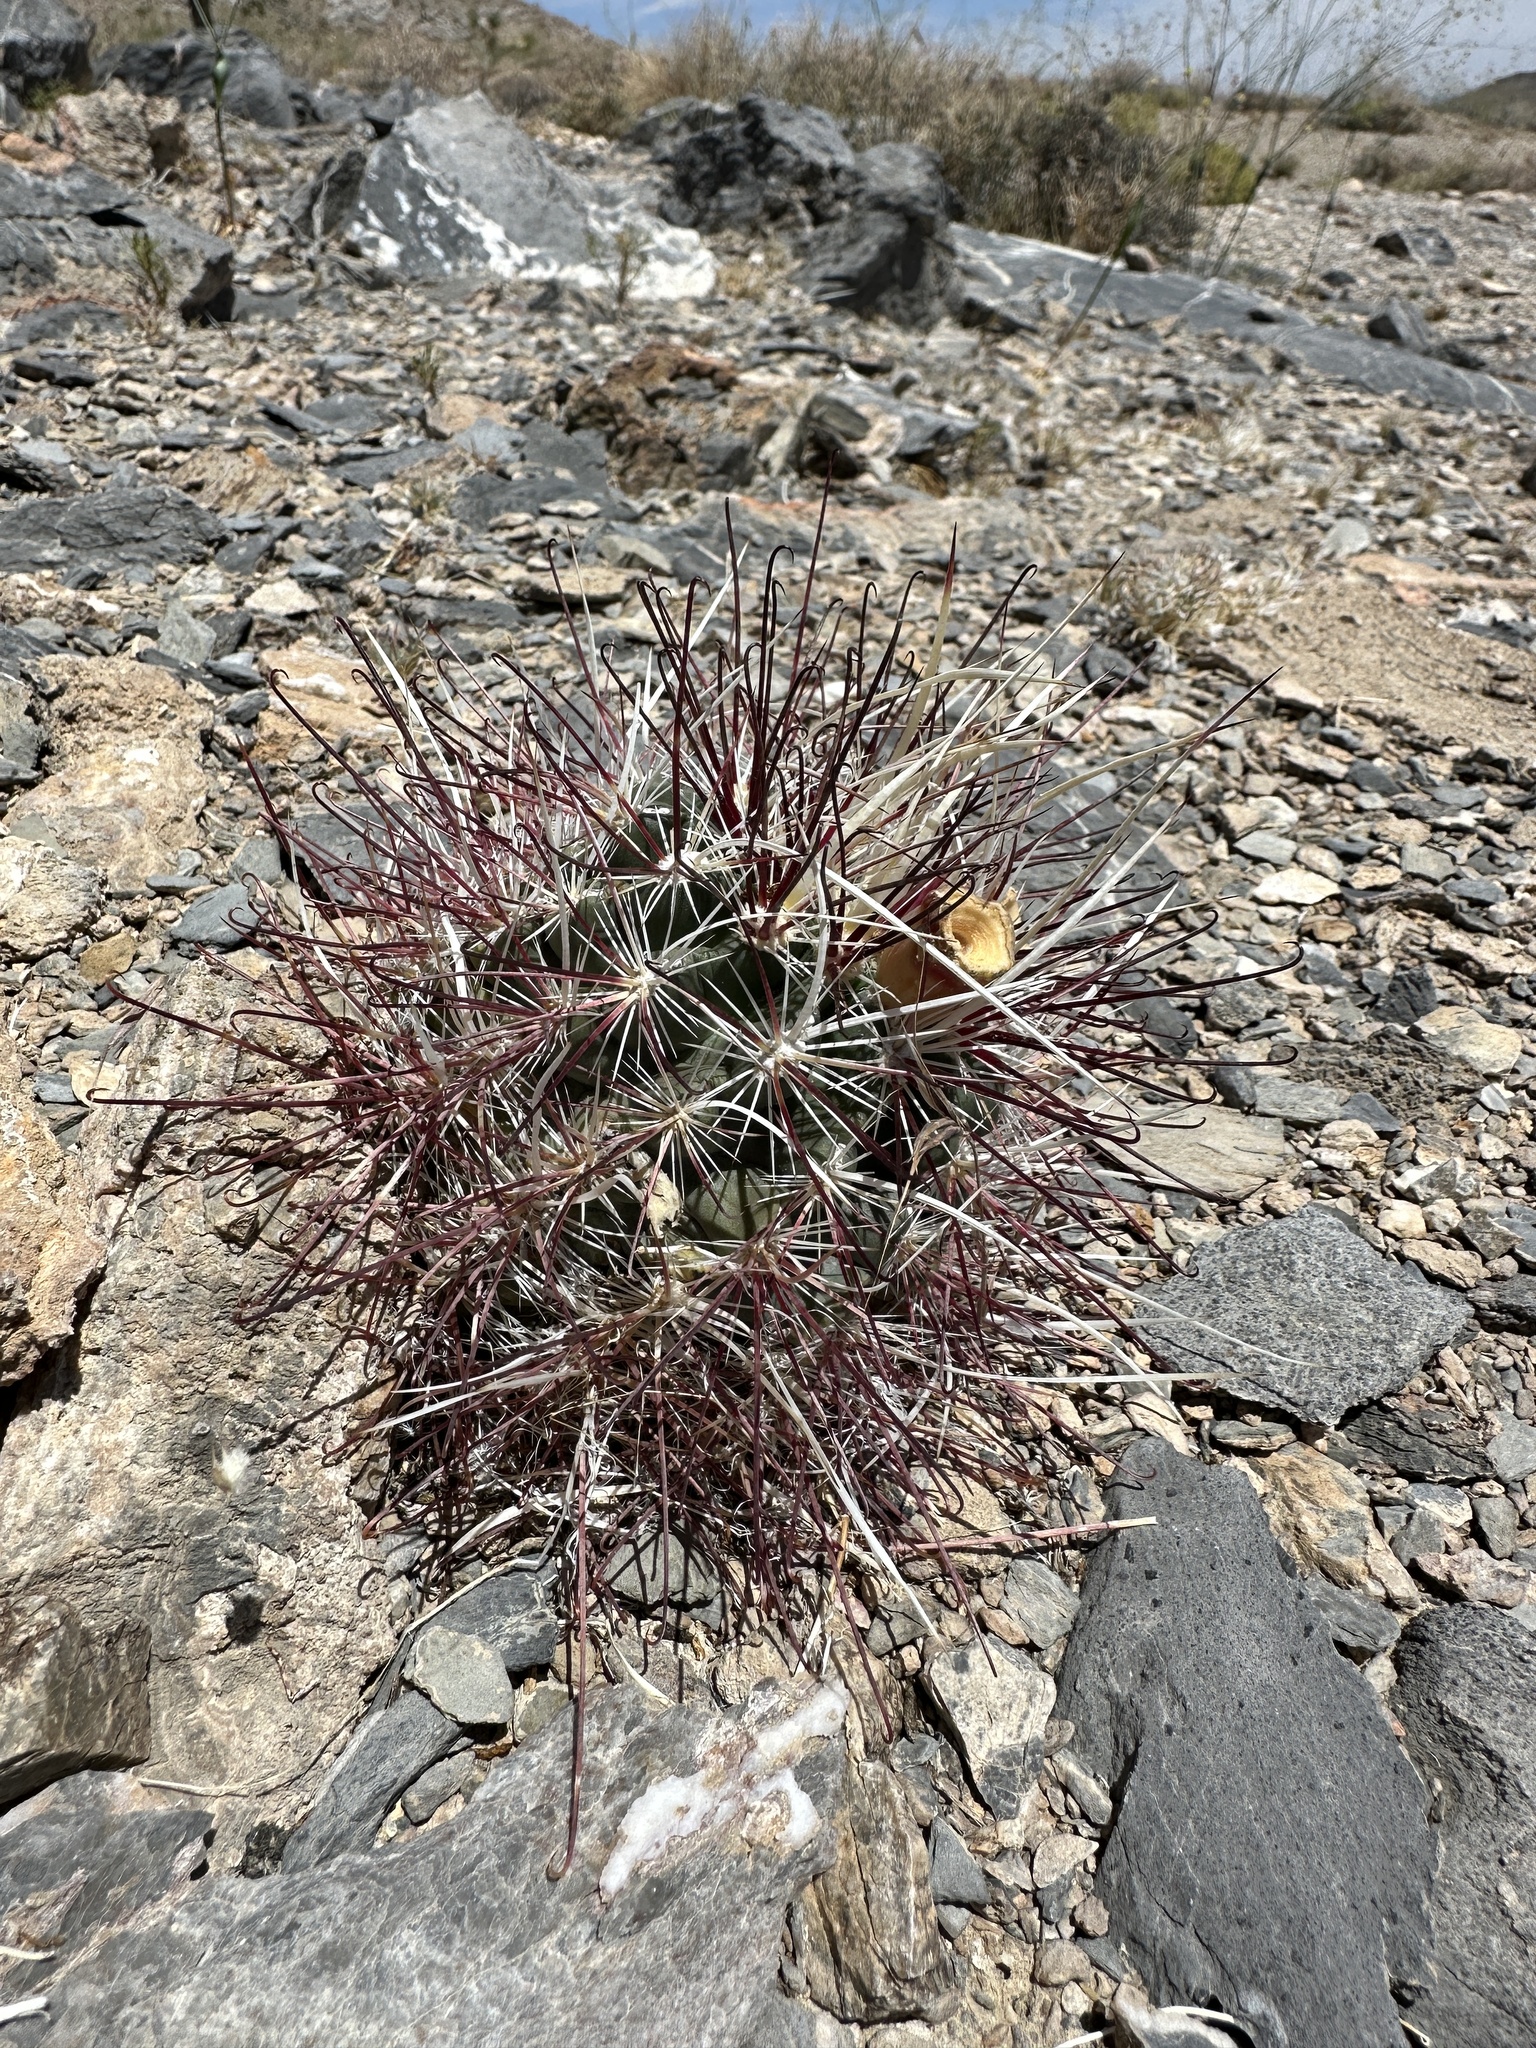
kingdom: Plantae
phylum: Tracheophyta
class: Magnoliopsida
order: Caryophyllales
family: Cactaceae
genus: Sclerocactus
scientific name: Sclerocactus polyancistrus
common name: Mohave fishhook cactus
